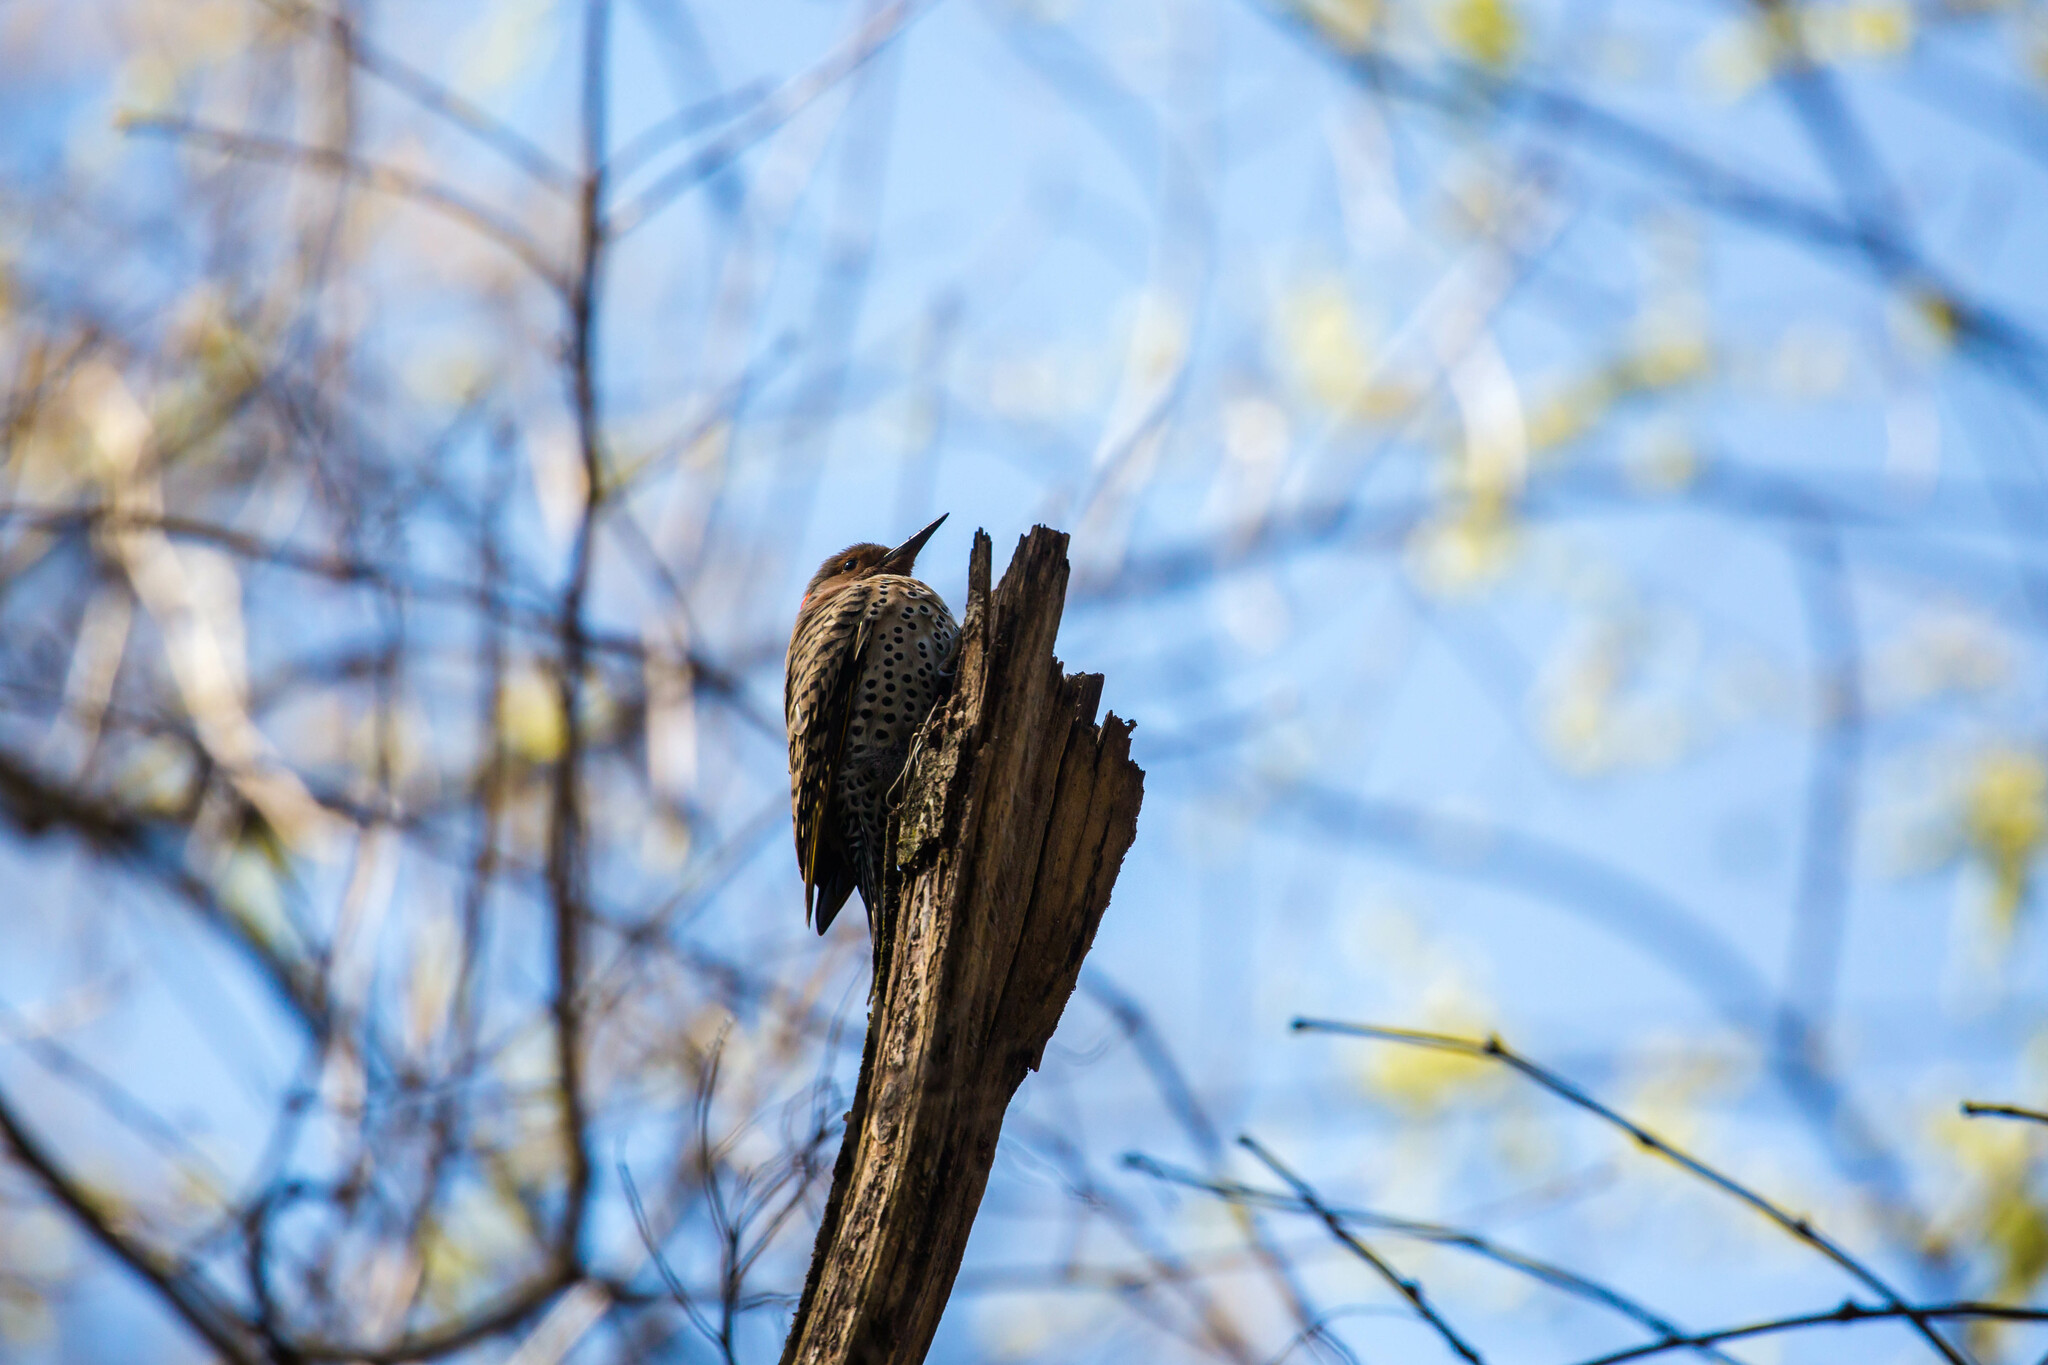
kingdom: Animalia
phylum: Chordata
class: Aves
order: Piciformes
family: Picidae
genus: Colaptes
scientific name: Colaptes auratus
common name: Northern flicker
